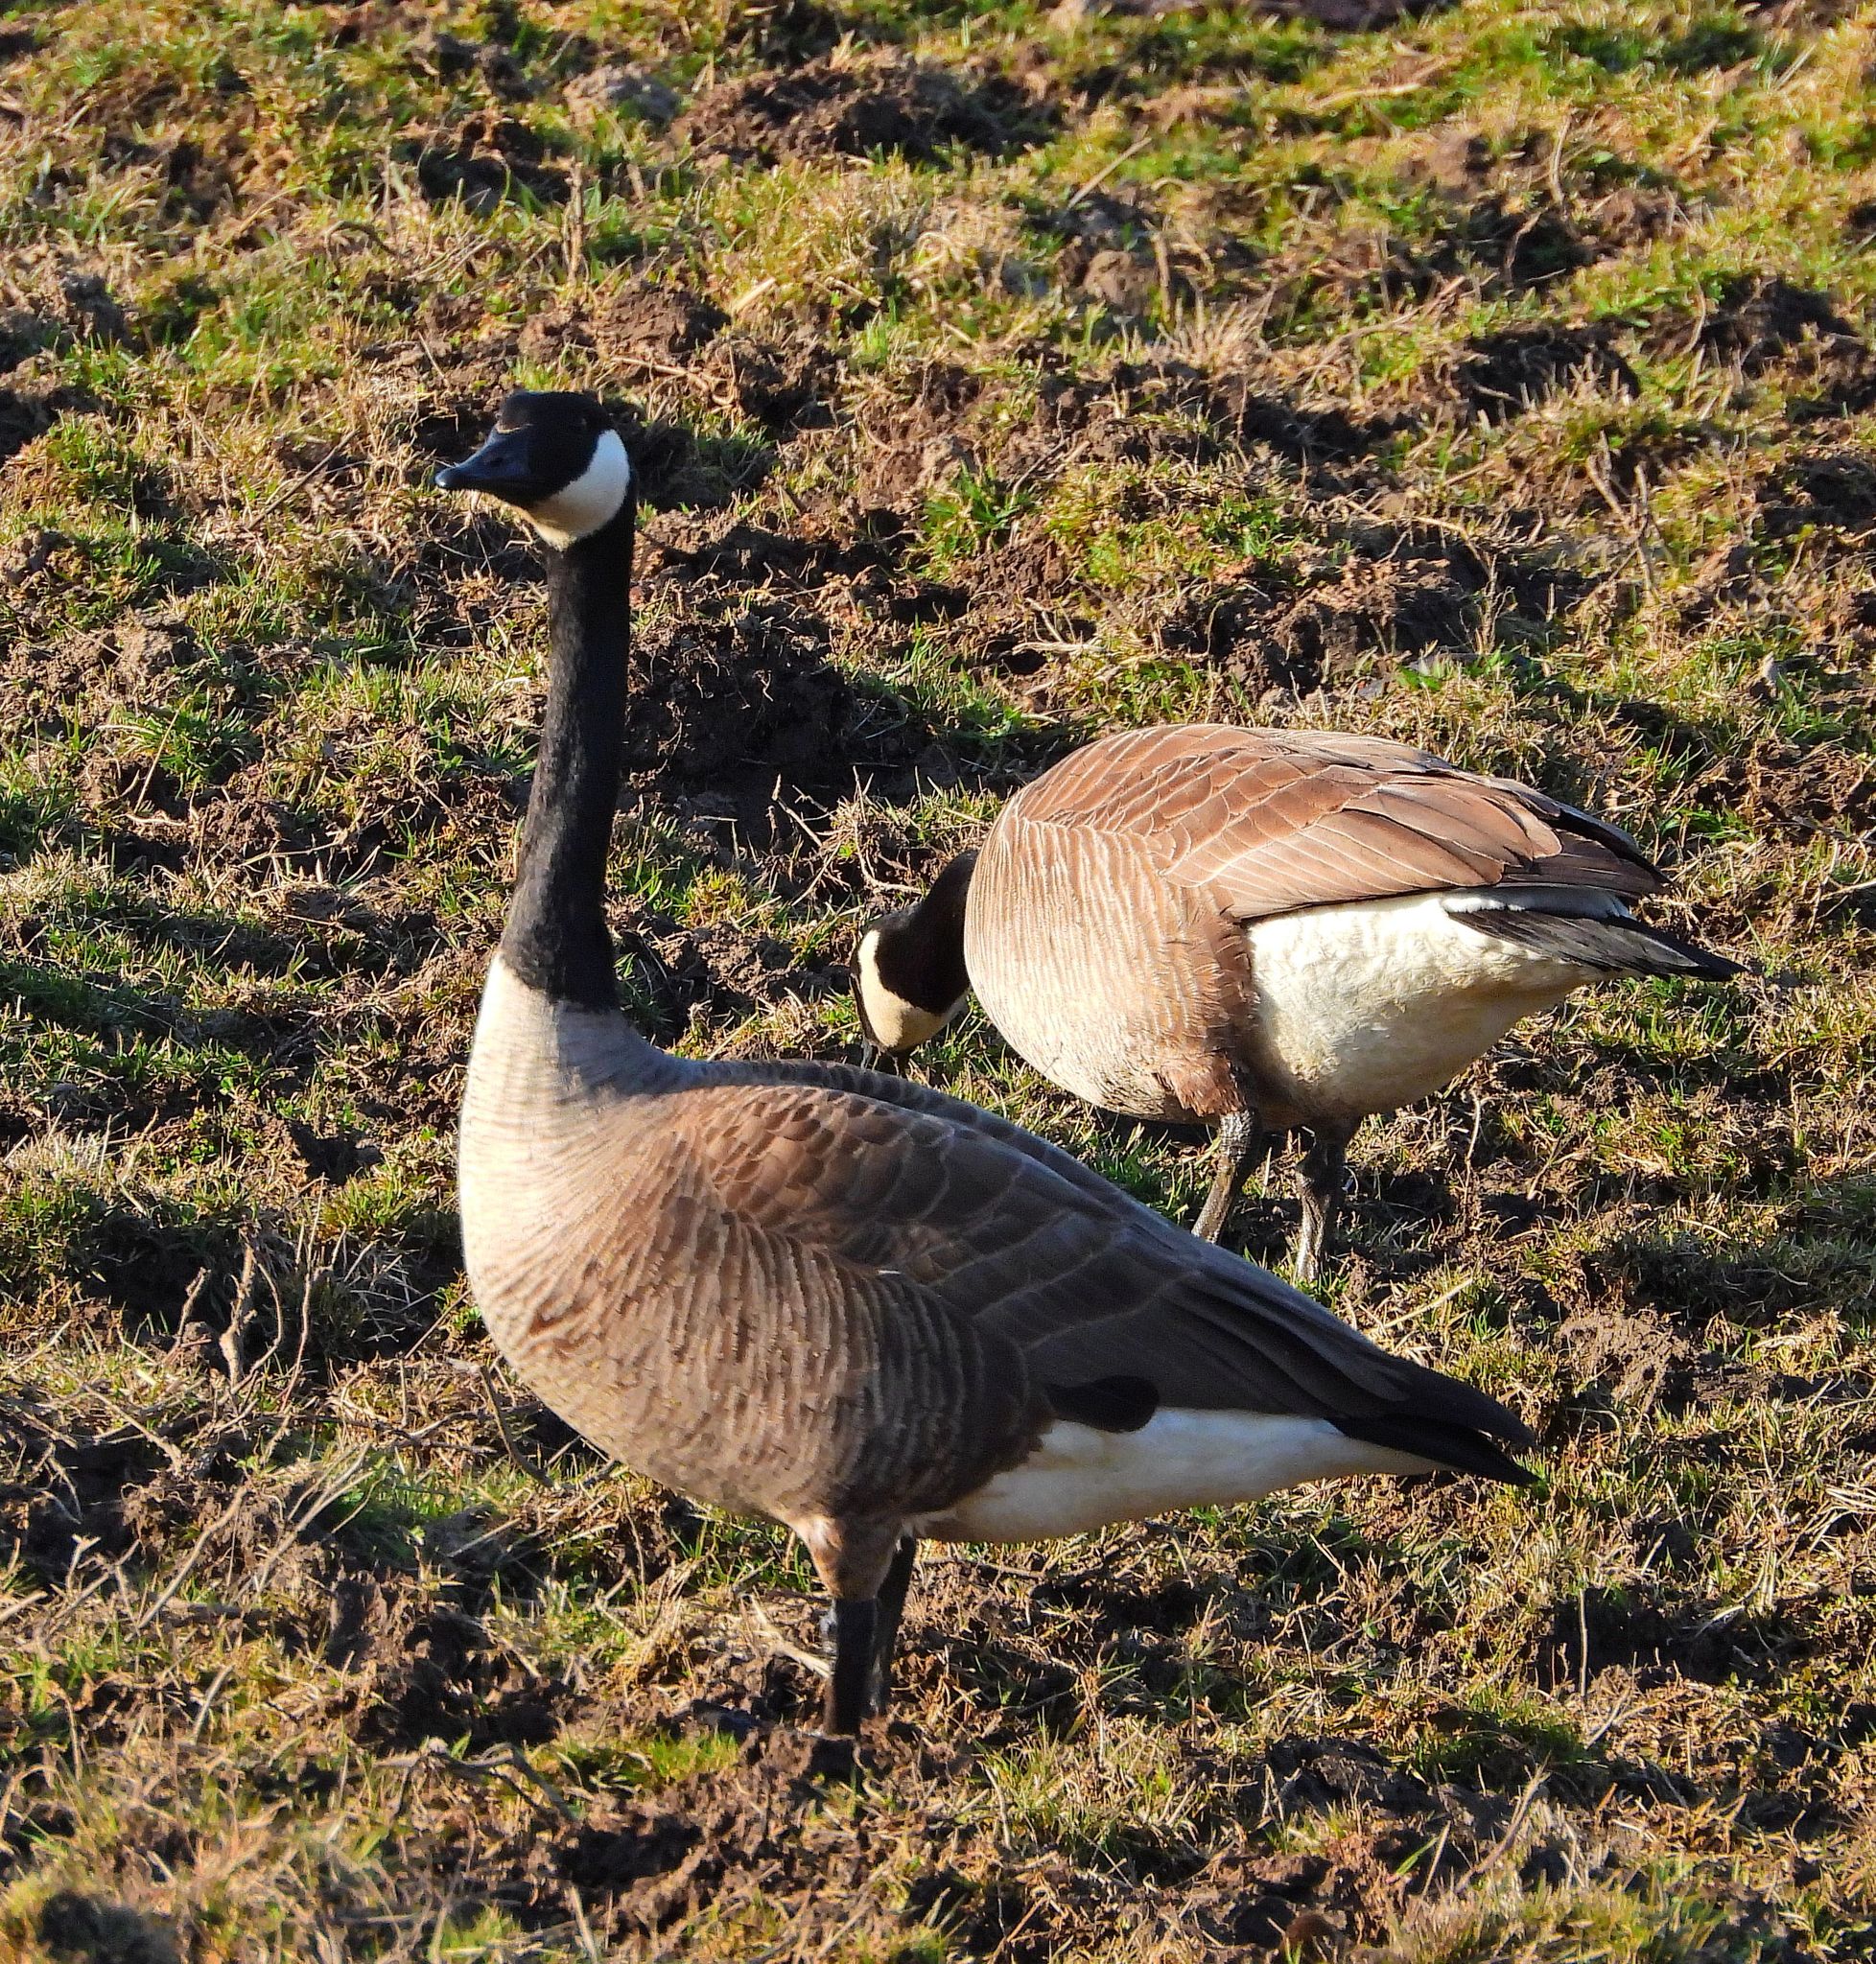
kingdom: Animalia
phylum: Chordata
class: Aves
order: Anseriformes
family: Anatidae
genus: Branta
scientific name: Branta canadensis
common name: Canada goose
